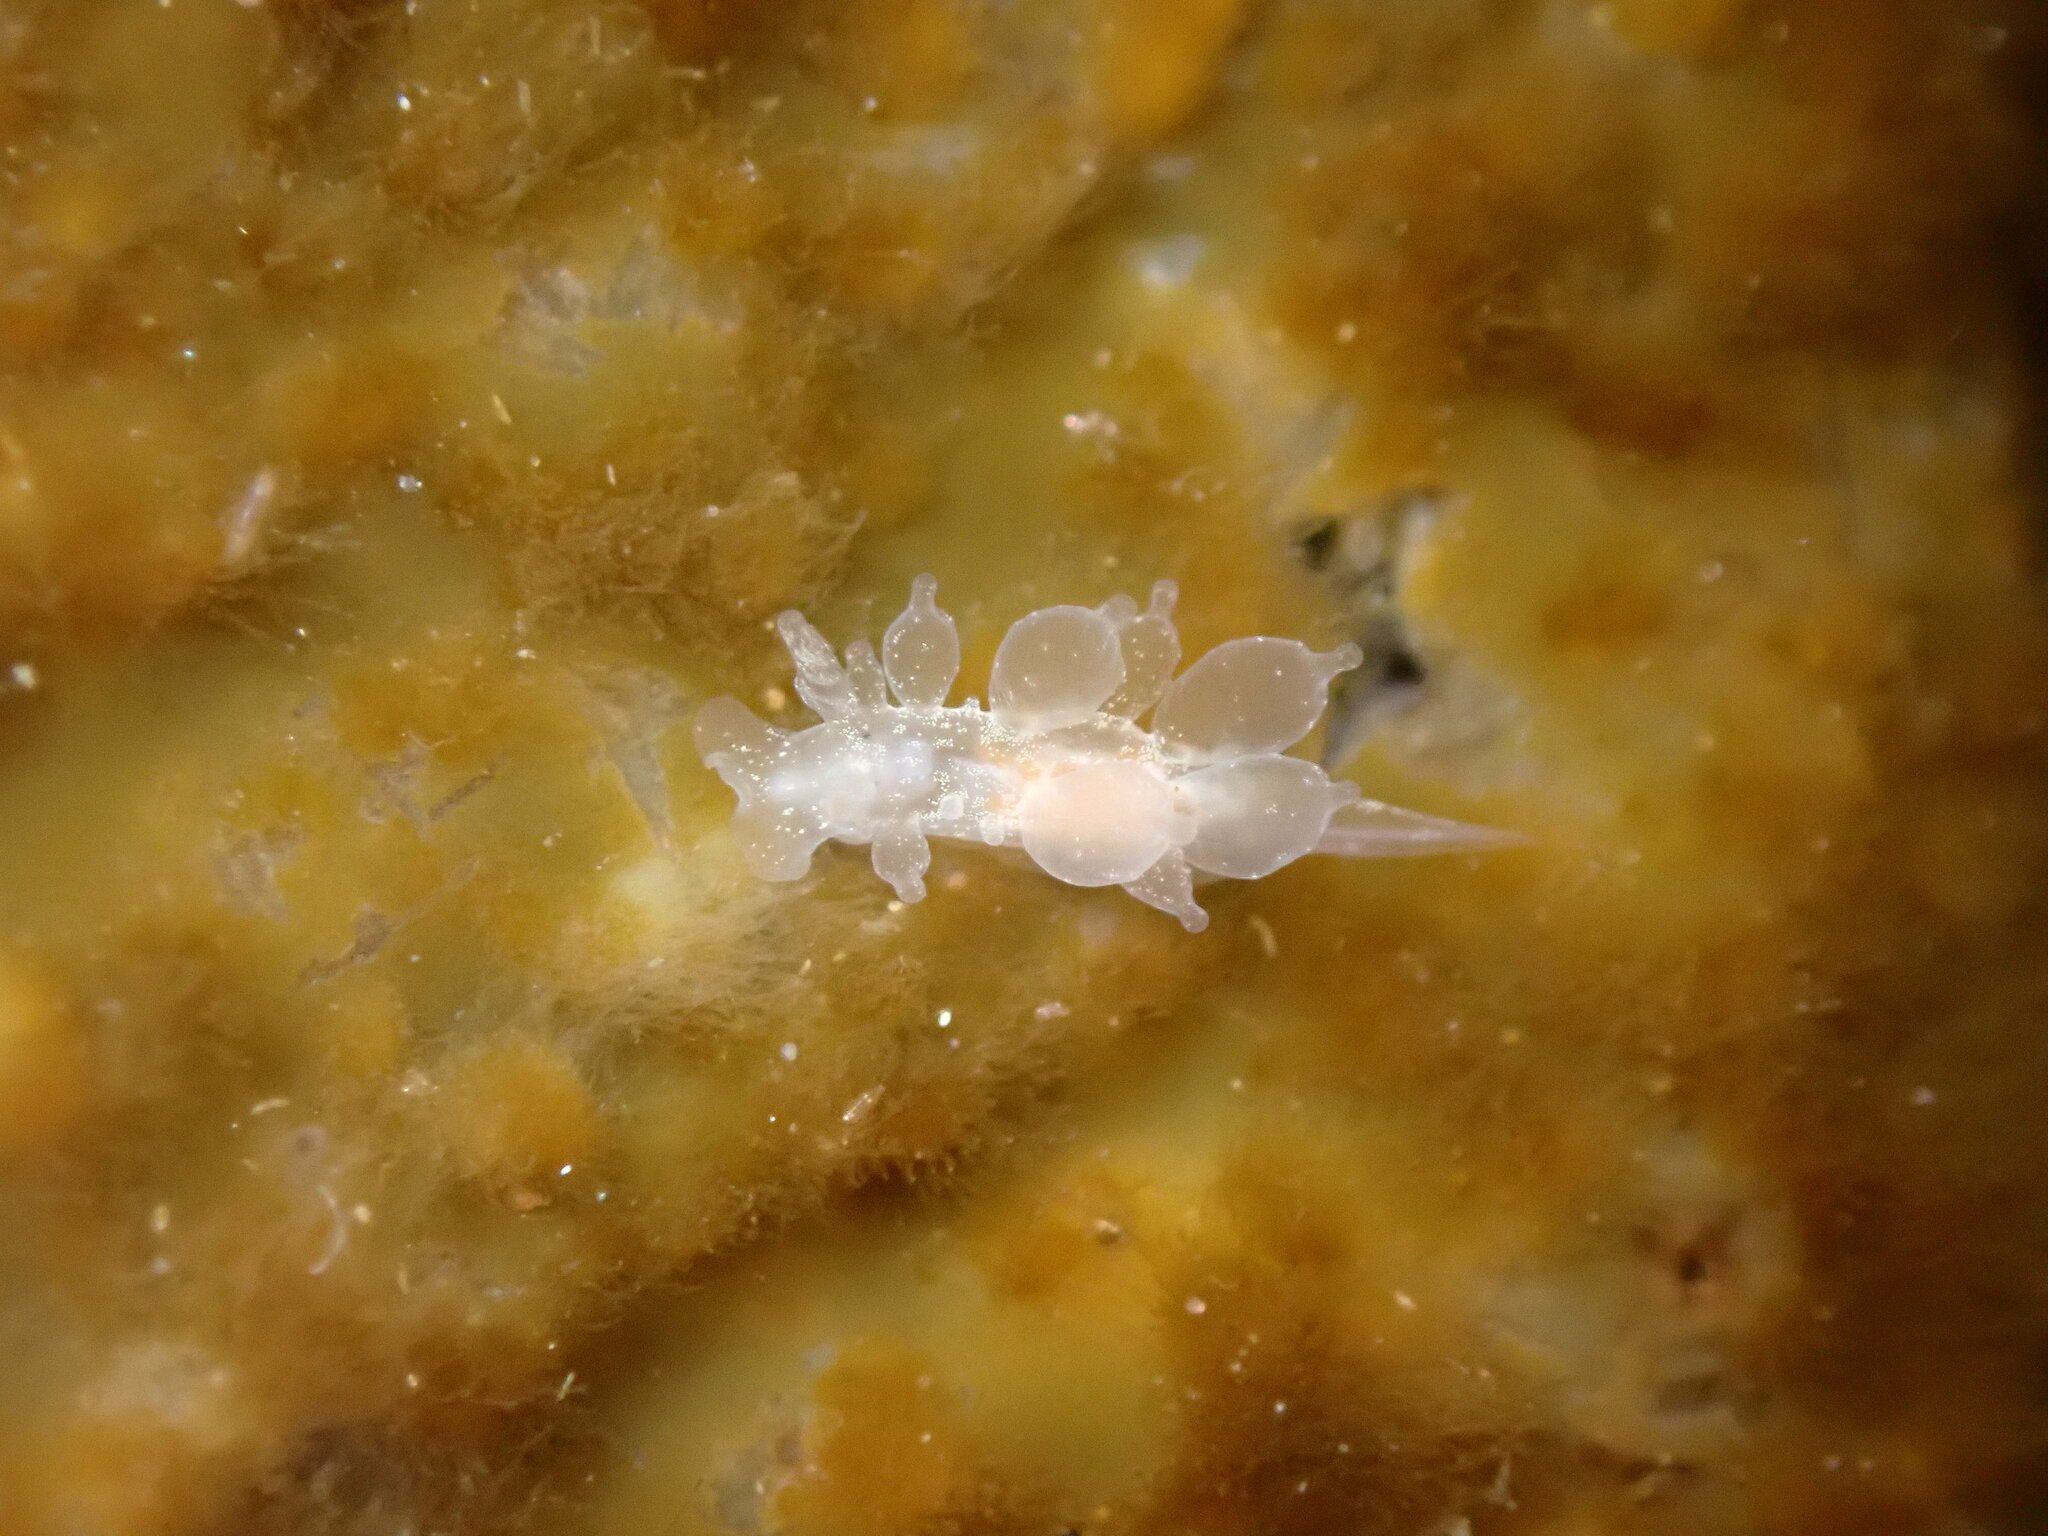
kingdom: Animalia
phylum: Mollusca
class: Gastropoda
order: Nudibranchia
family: Dironidae
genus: Dirona
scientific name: Dirona picta
